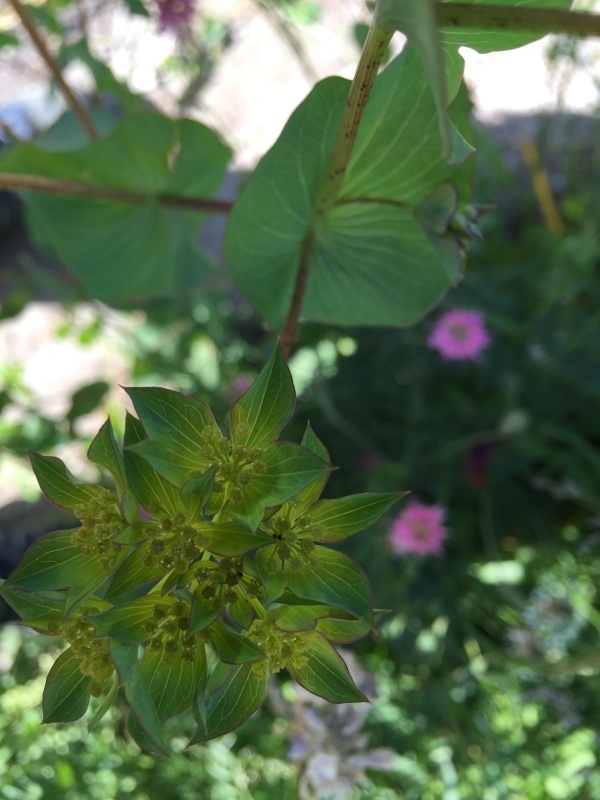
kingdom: Plantae
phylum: Tracheophyta
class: Magnoliopsida
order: Apiales
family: Apiaceae
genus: Bupleurum
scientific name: Bupleurum rotundifolium
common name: Thorow-wax
